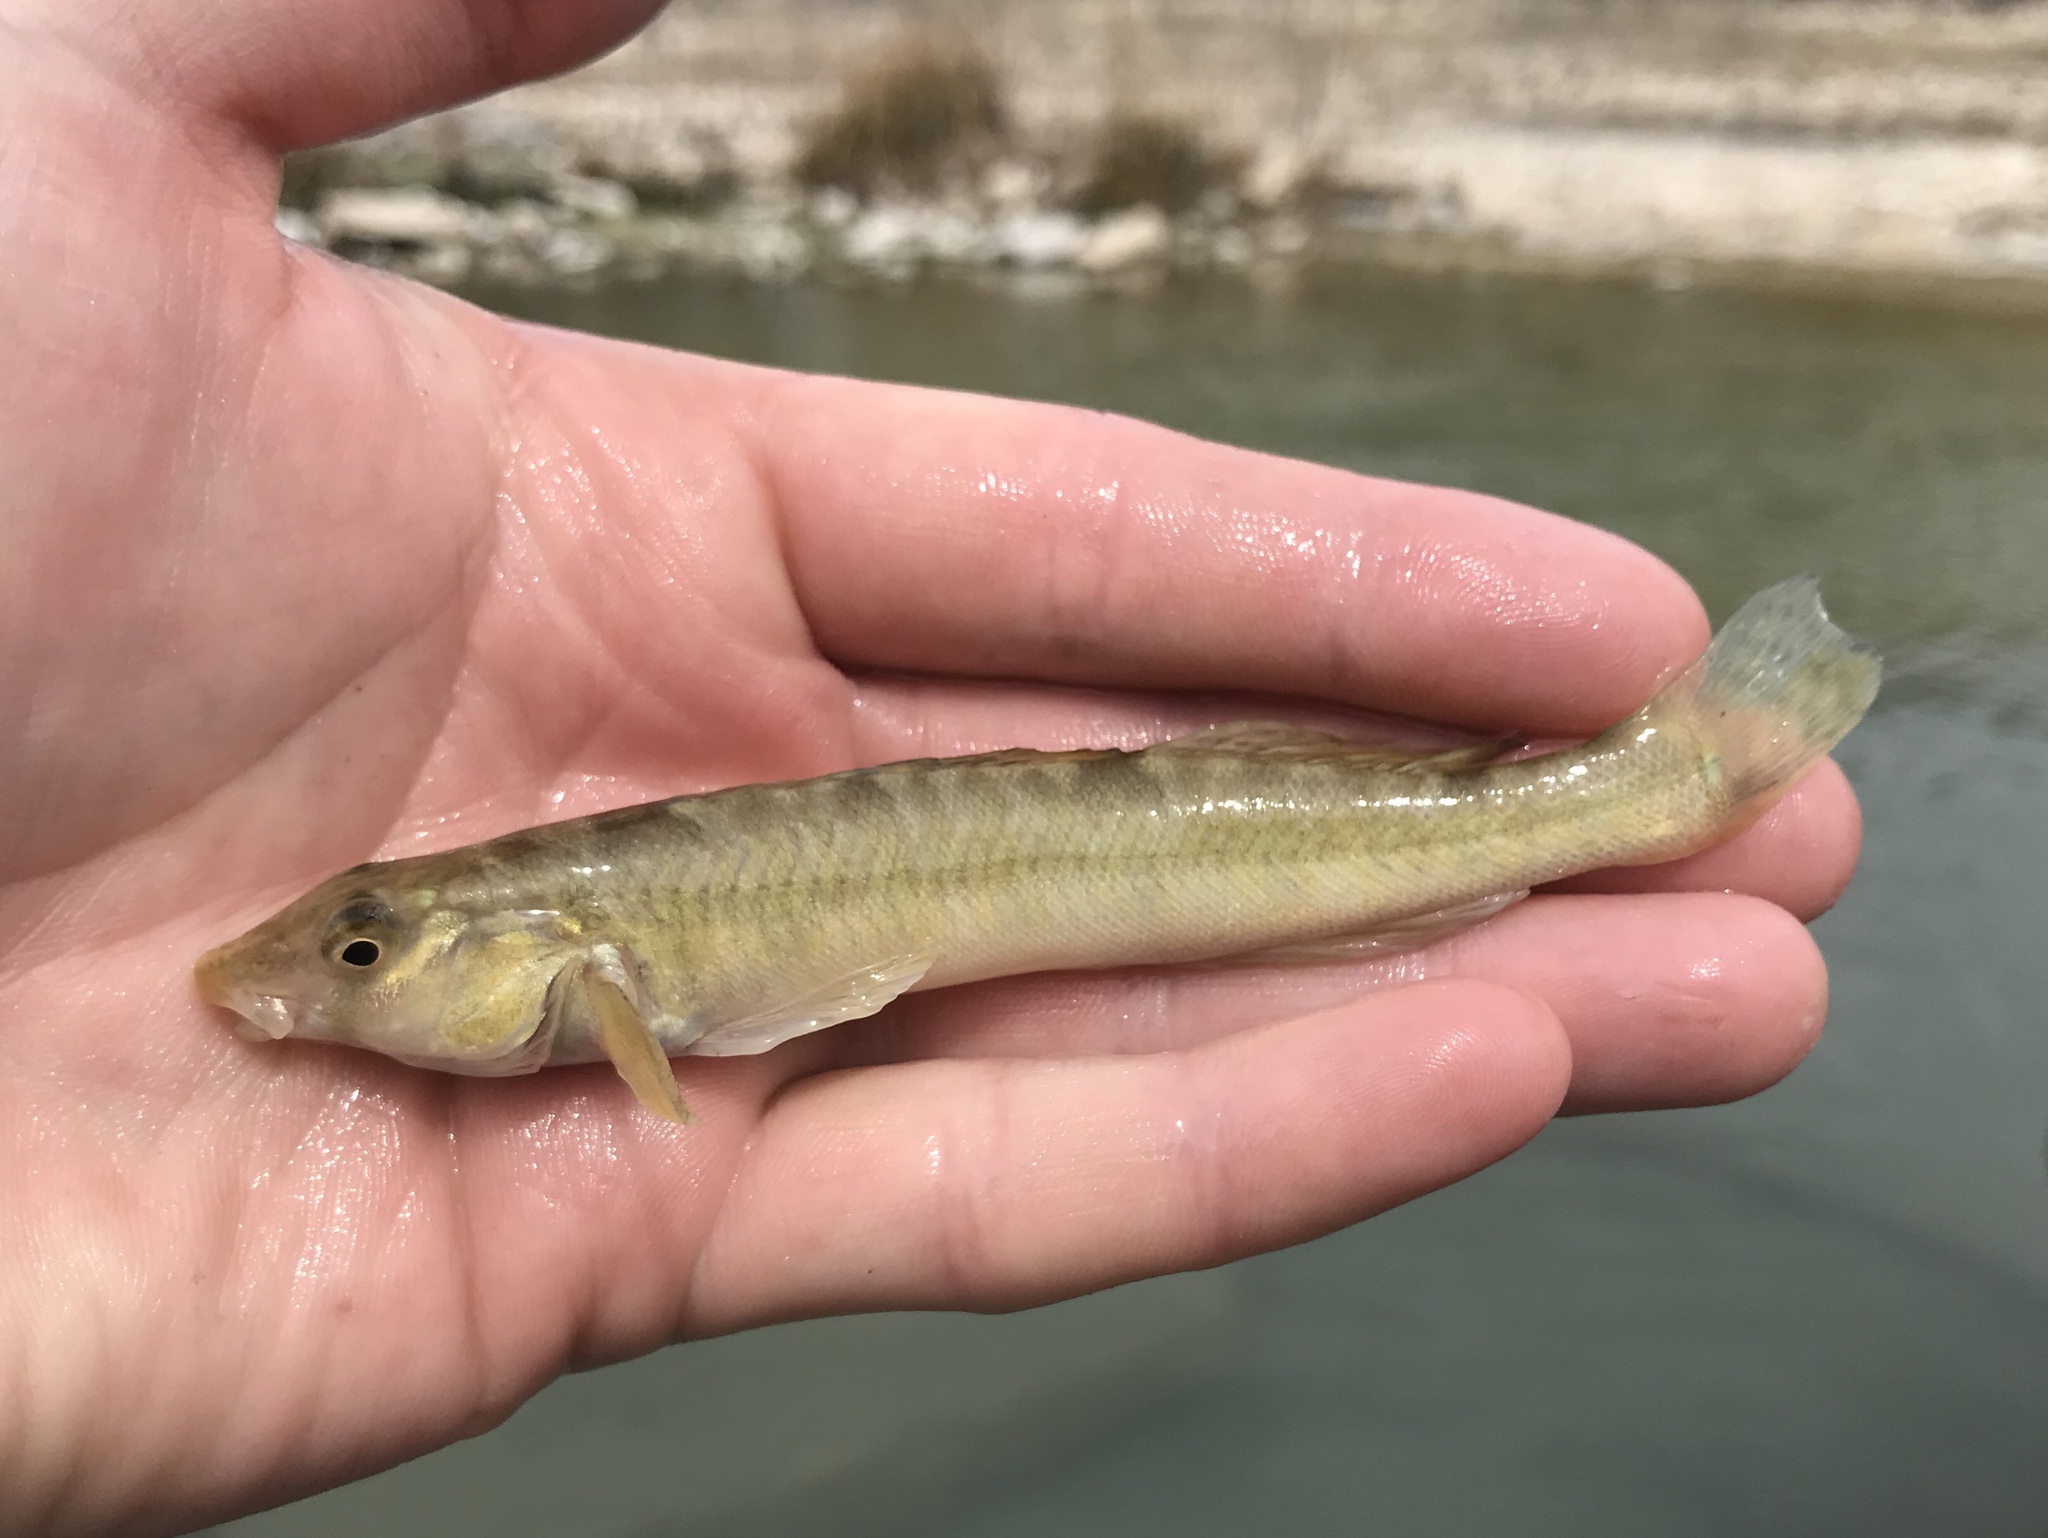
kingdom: Animalia
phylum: Chordata
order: Perciformes
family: Percidae
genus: Percina
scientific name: Percina carbonaria
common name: Texas logperch
